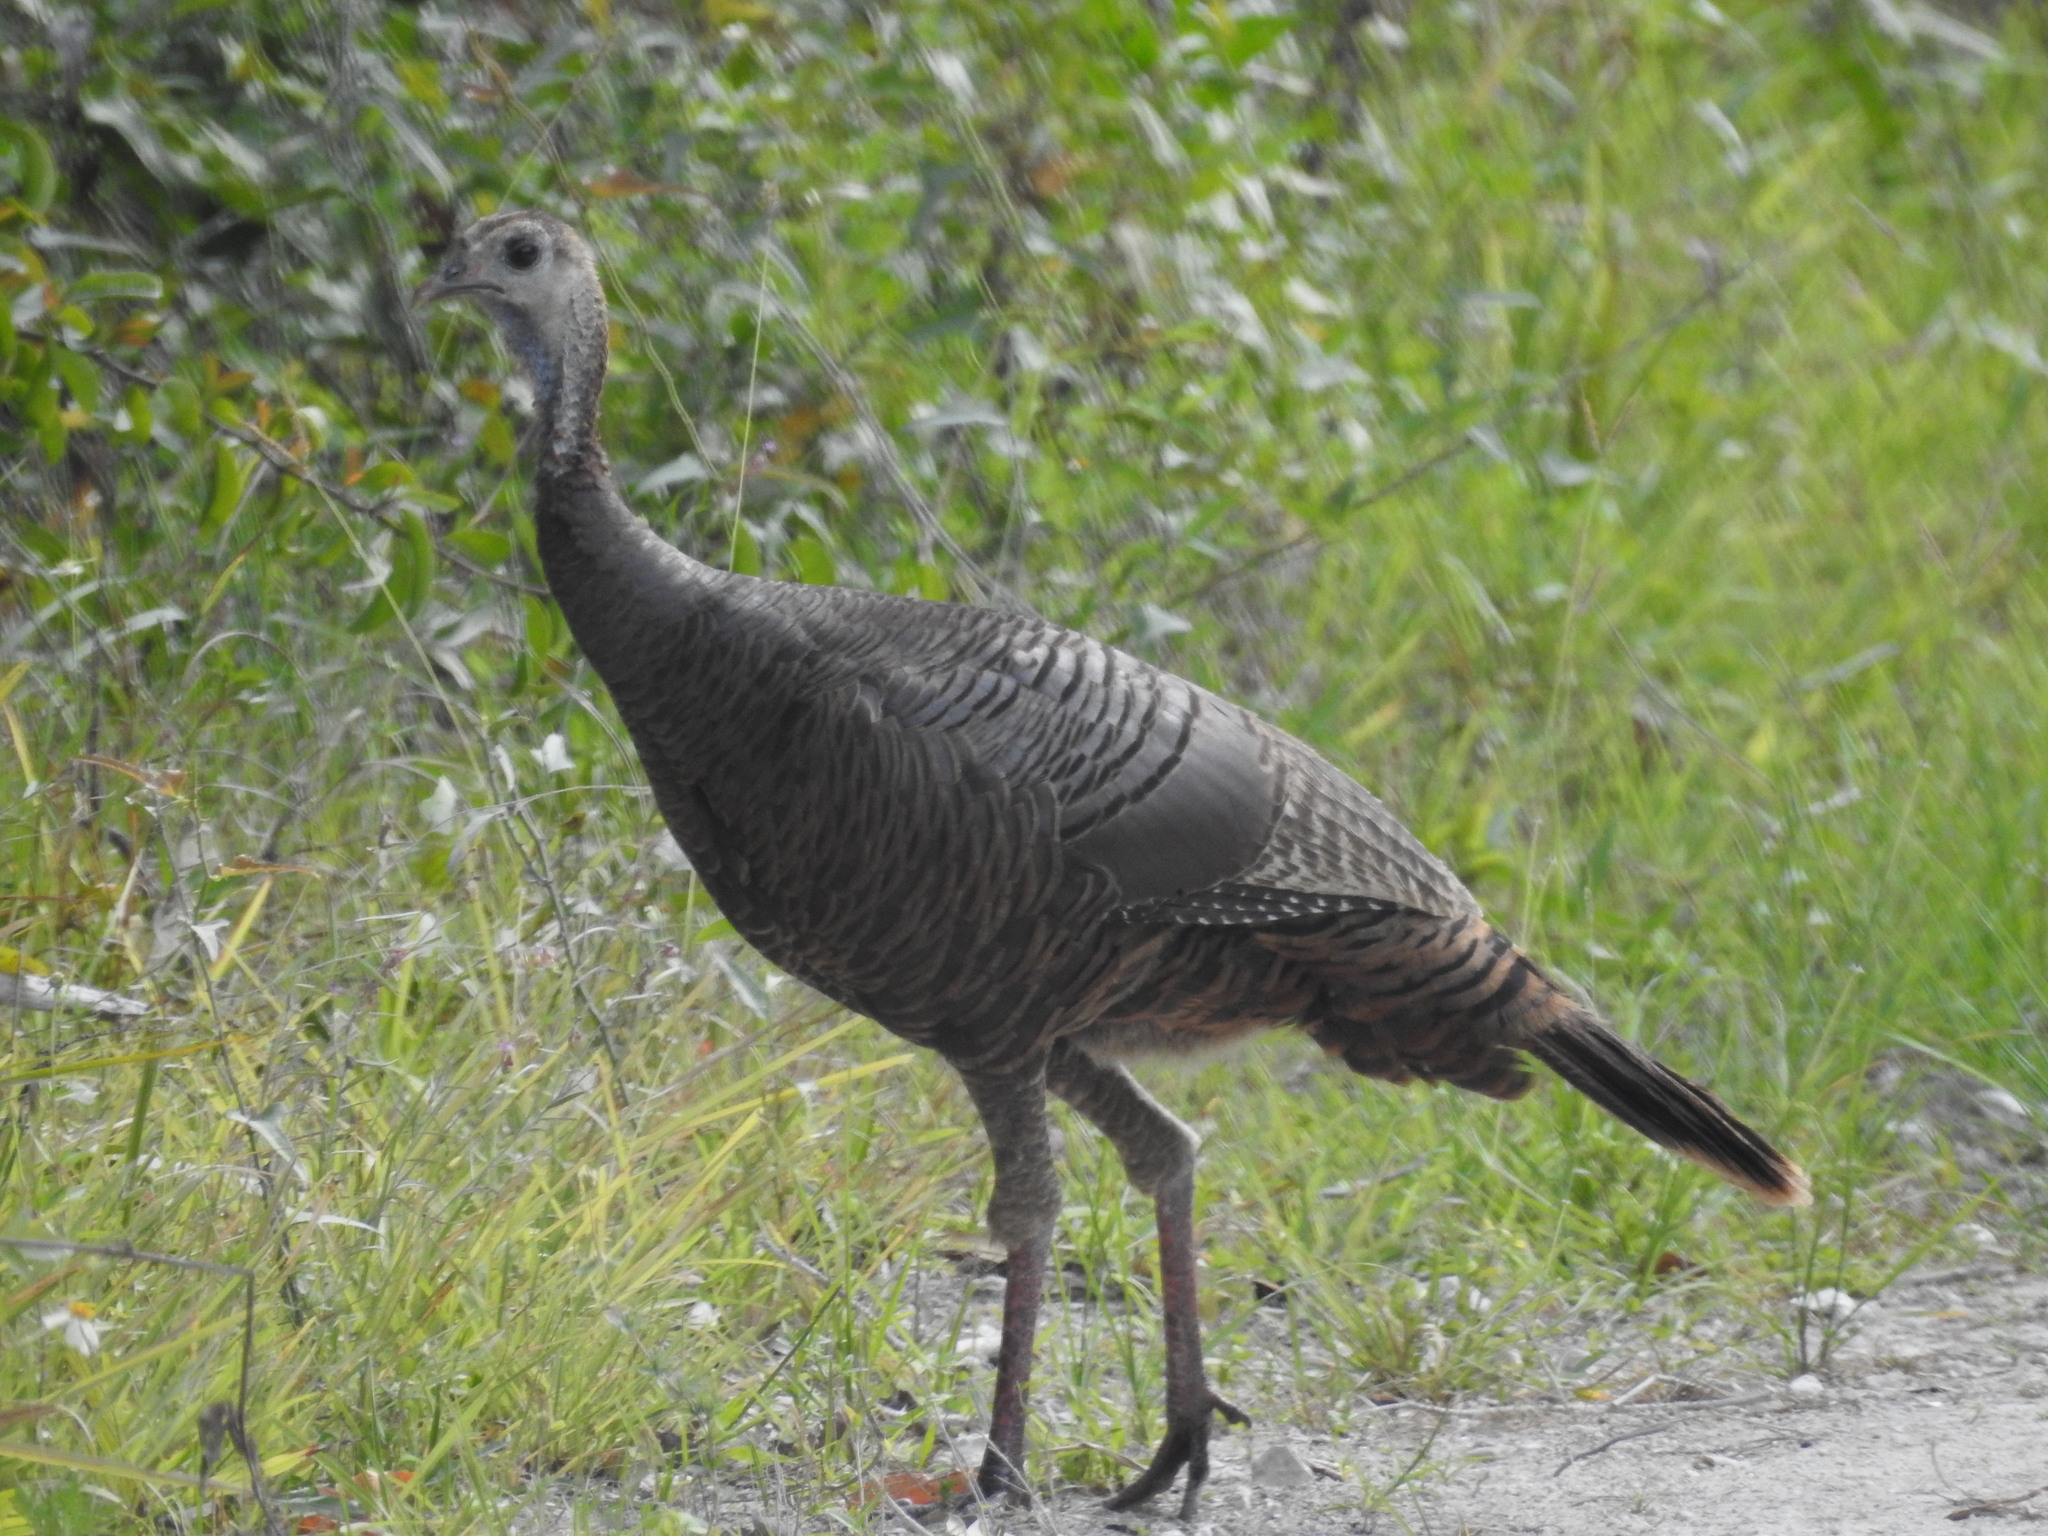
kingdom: Animalia
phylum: Chordata
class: Aves
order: Galliformes
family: Phasianidae
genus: Meleagris
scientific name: Meleagris gallopavo
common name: Wild turkey
